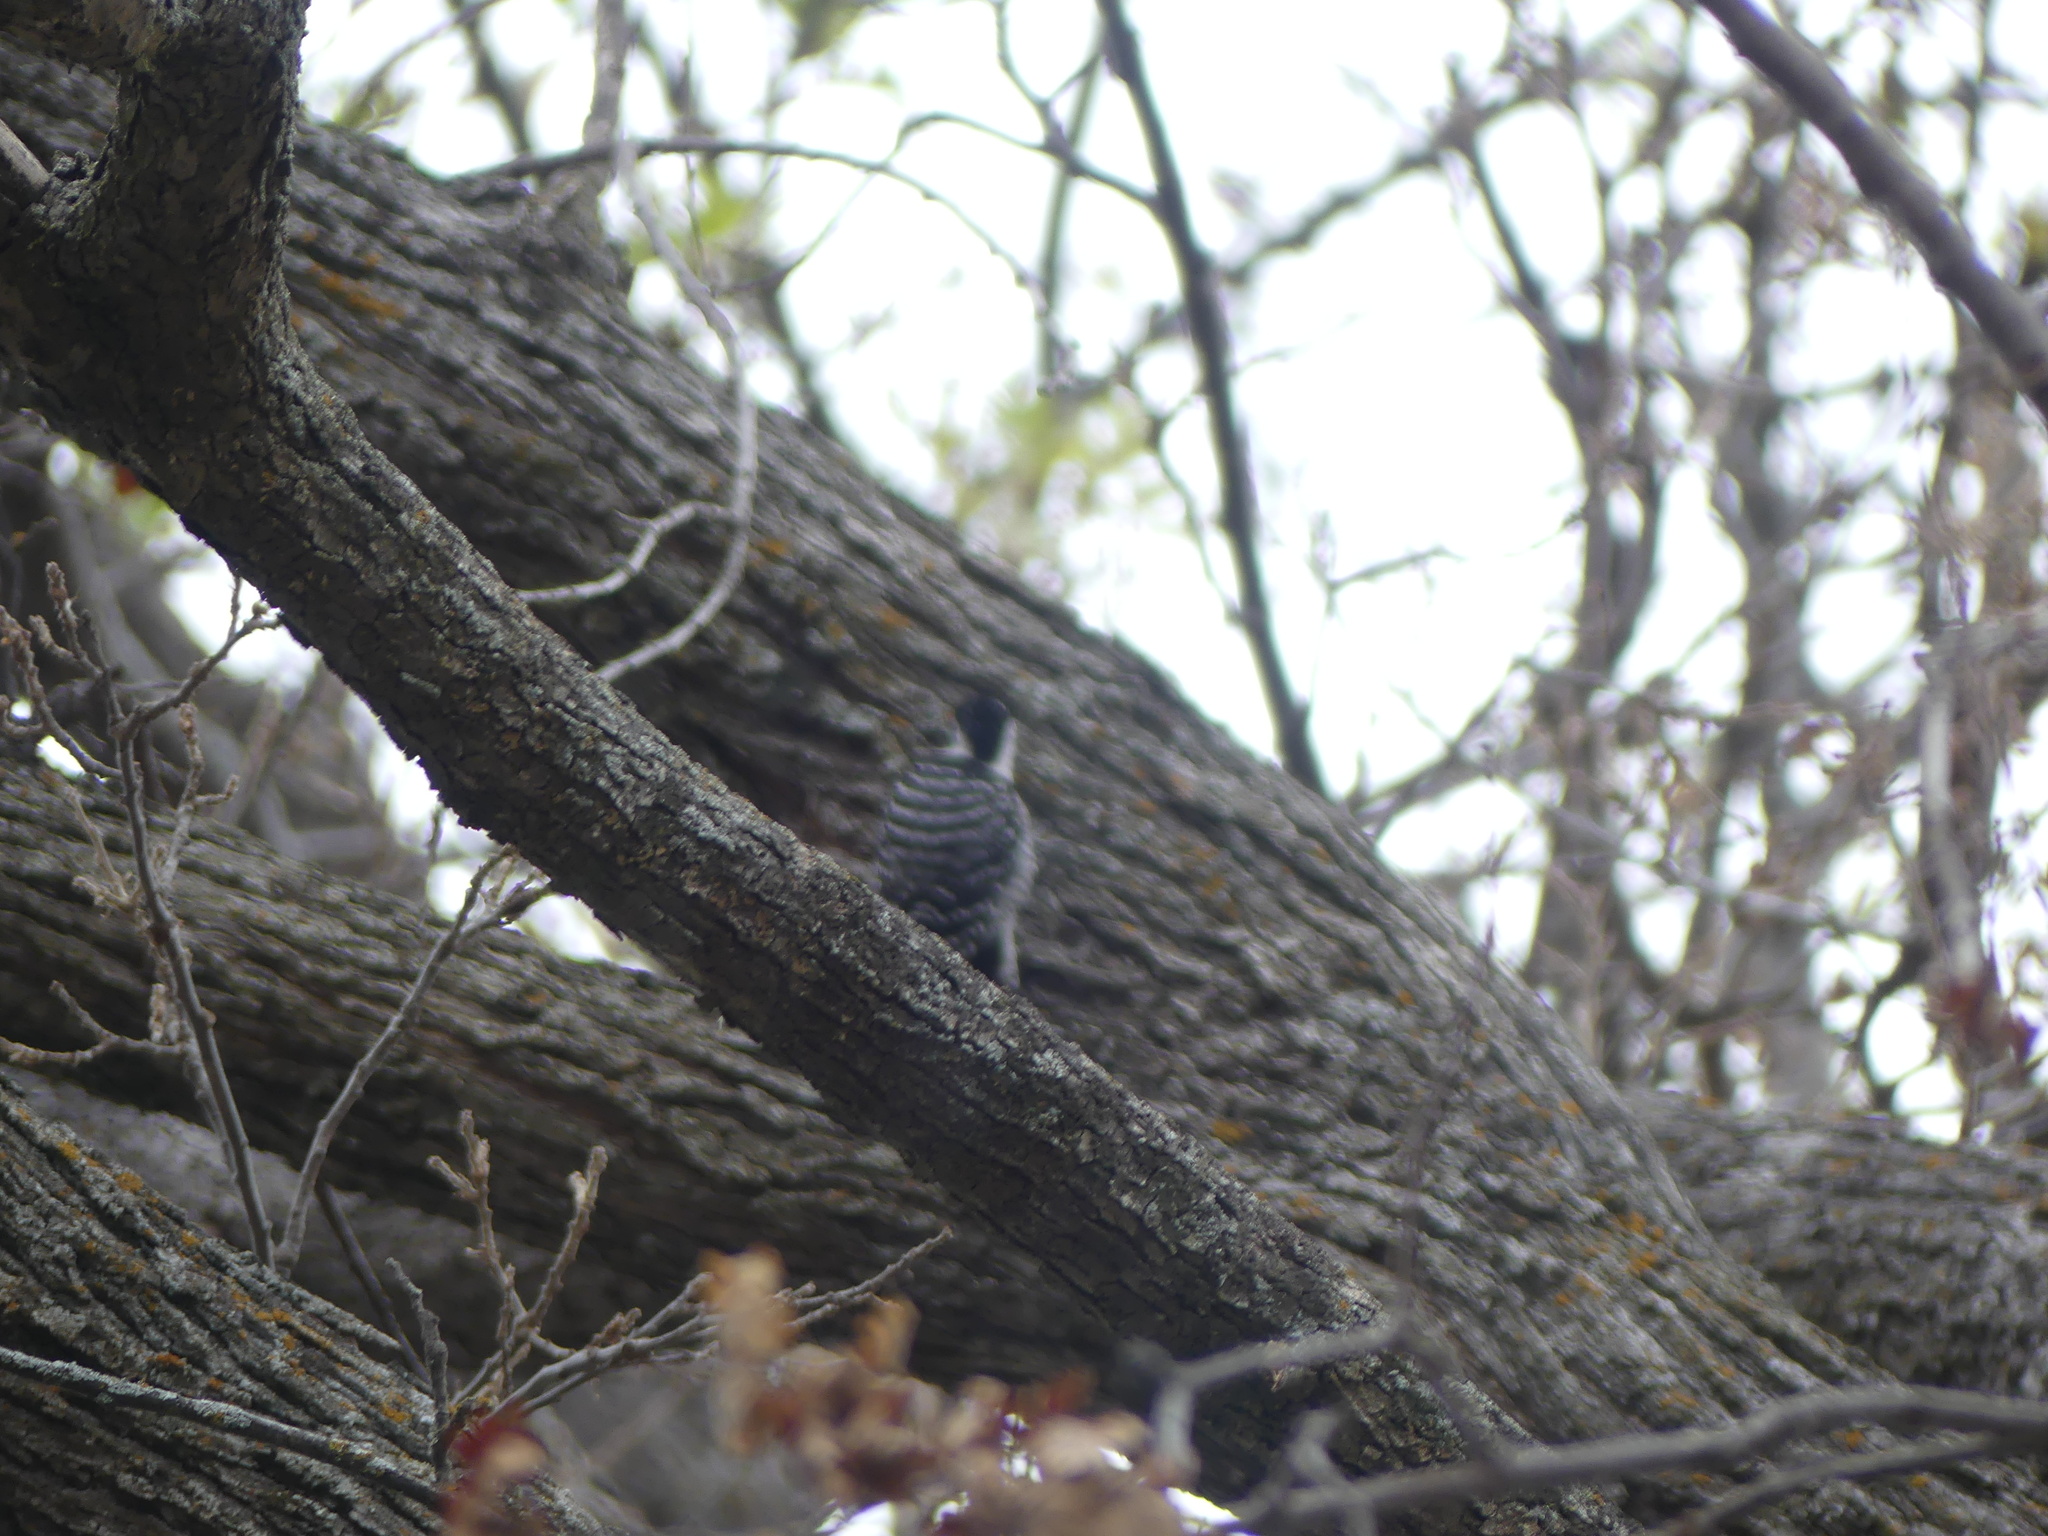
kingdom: Animalia
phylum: Chordata
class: Aves
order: Piciformes
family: Picidae
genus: Dryobates
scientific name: Dryobates nuttallii
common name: Nuttall's woodpecker
